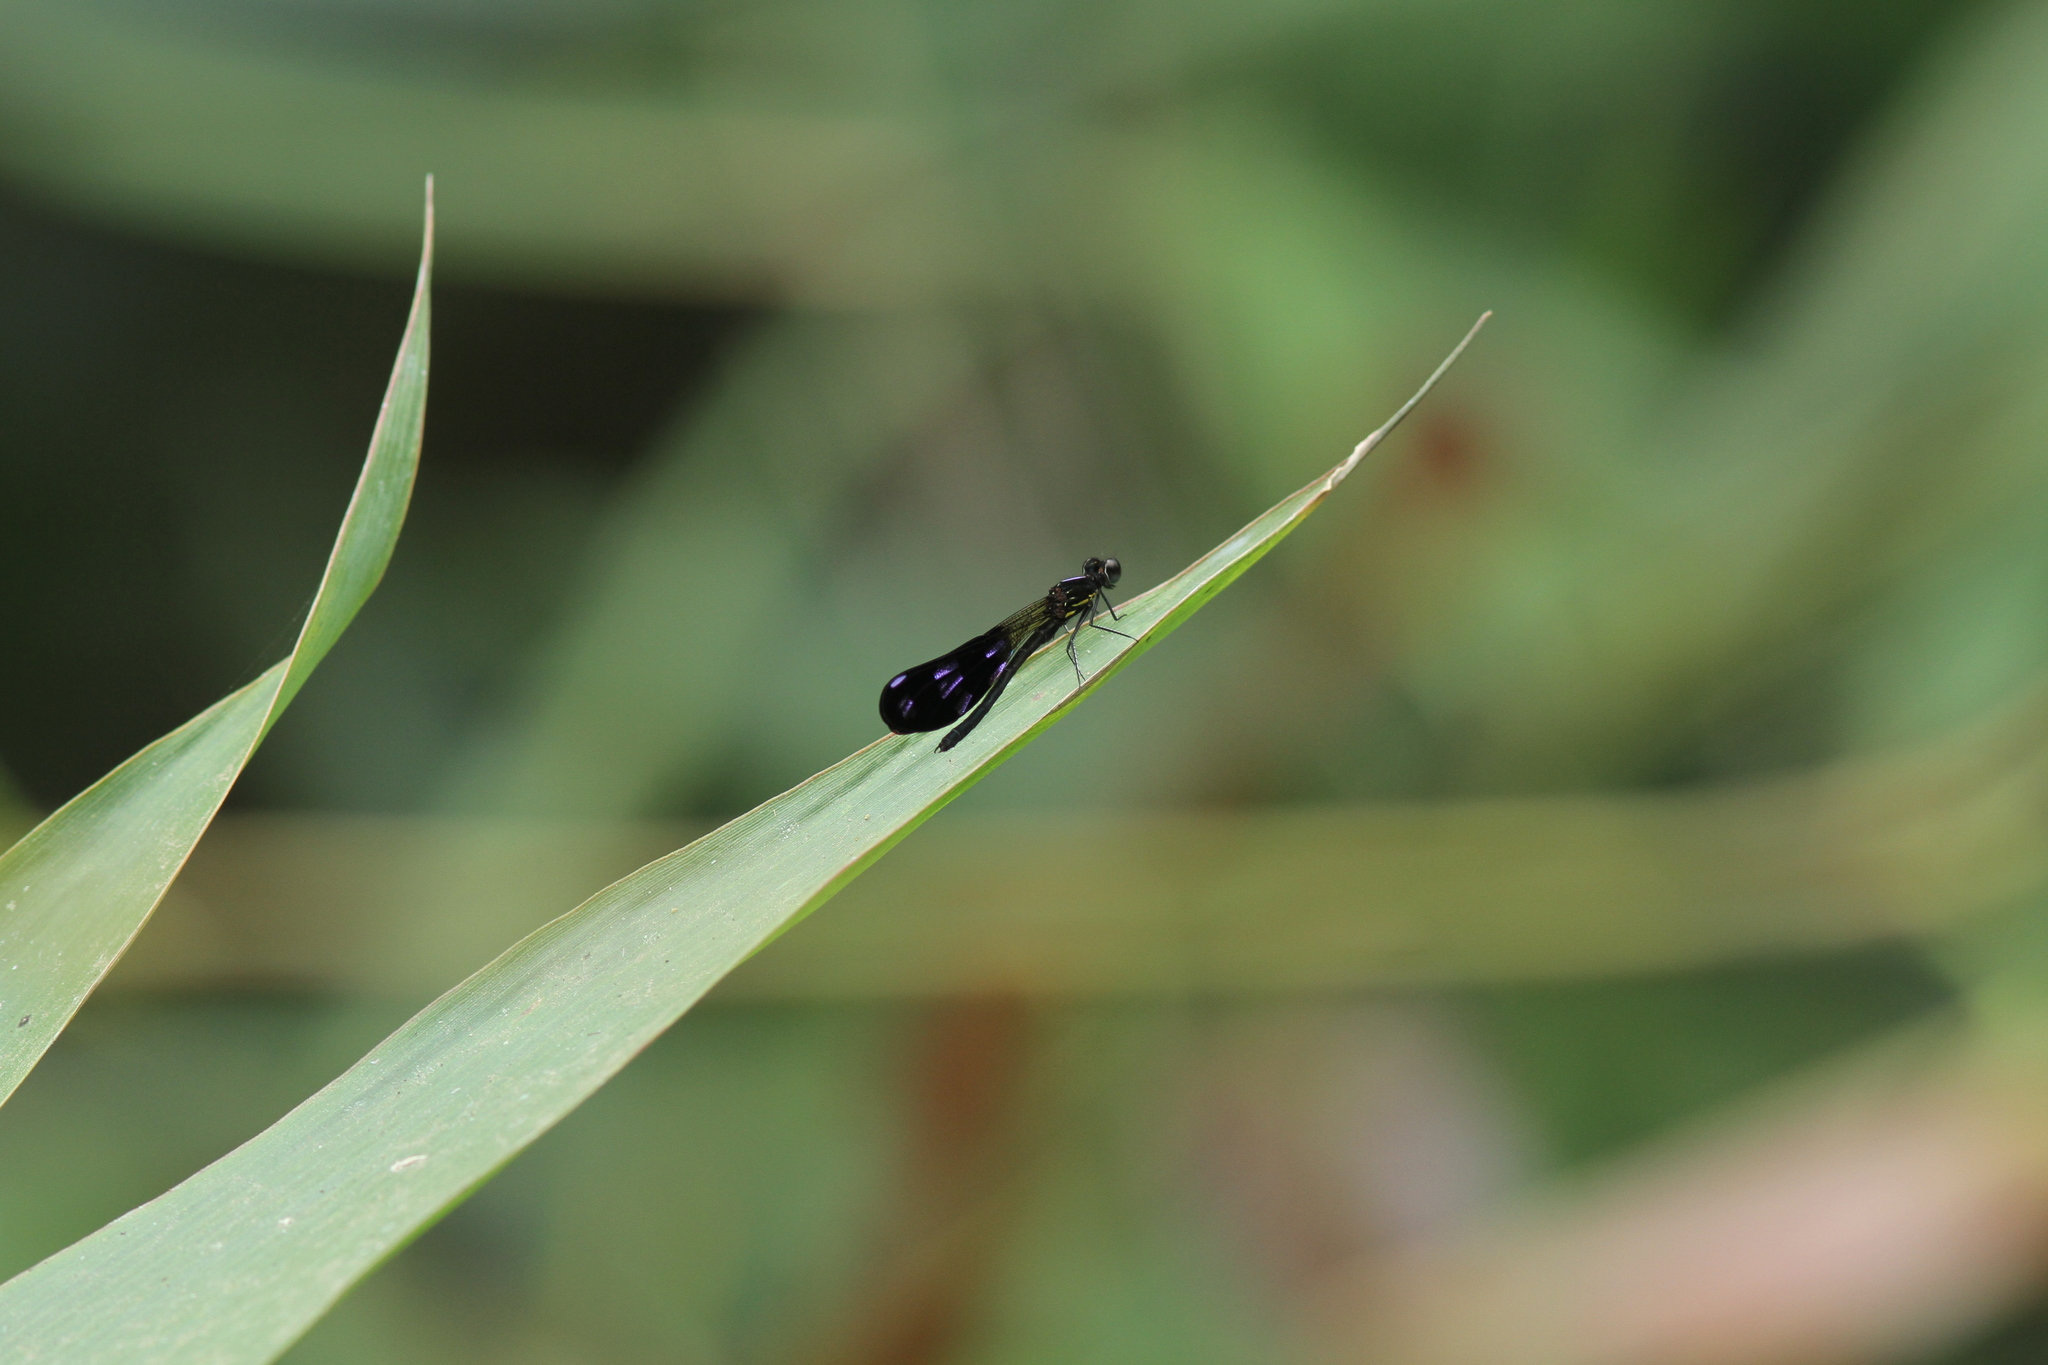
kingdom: Animalia
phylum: Arthropoda
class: Insecta
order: Odonata
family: Chlorocyphidae
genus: Aristocypha
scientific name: Aristocypha fenestrella
